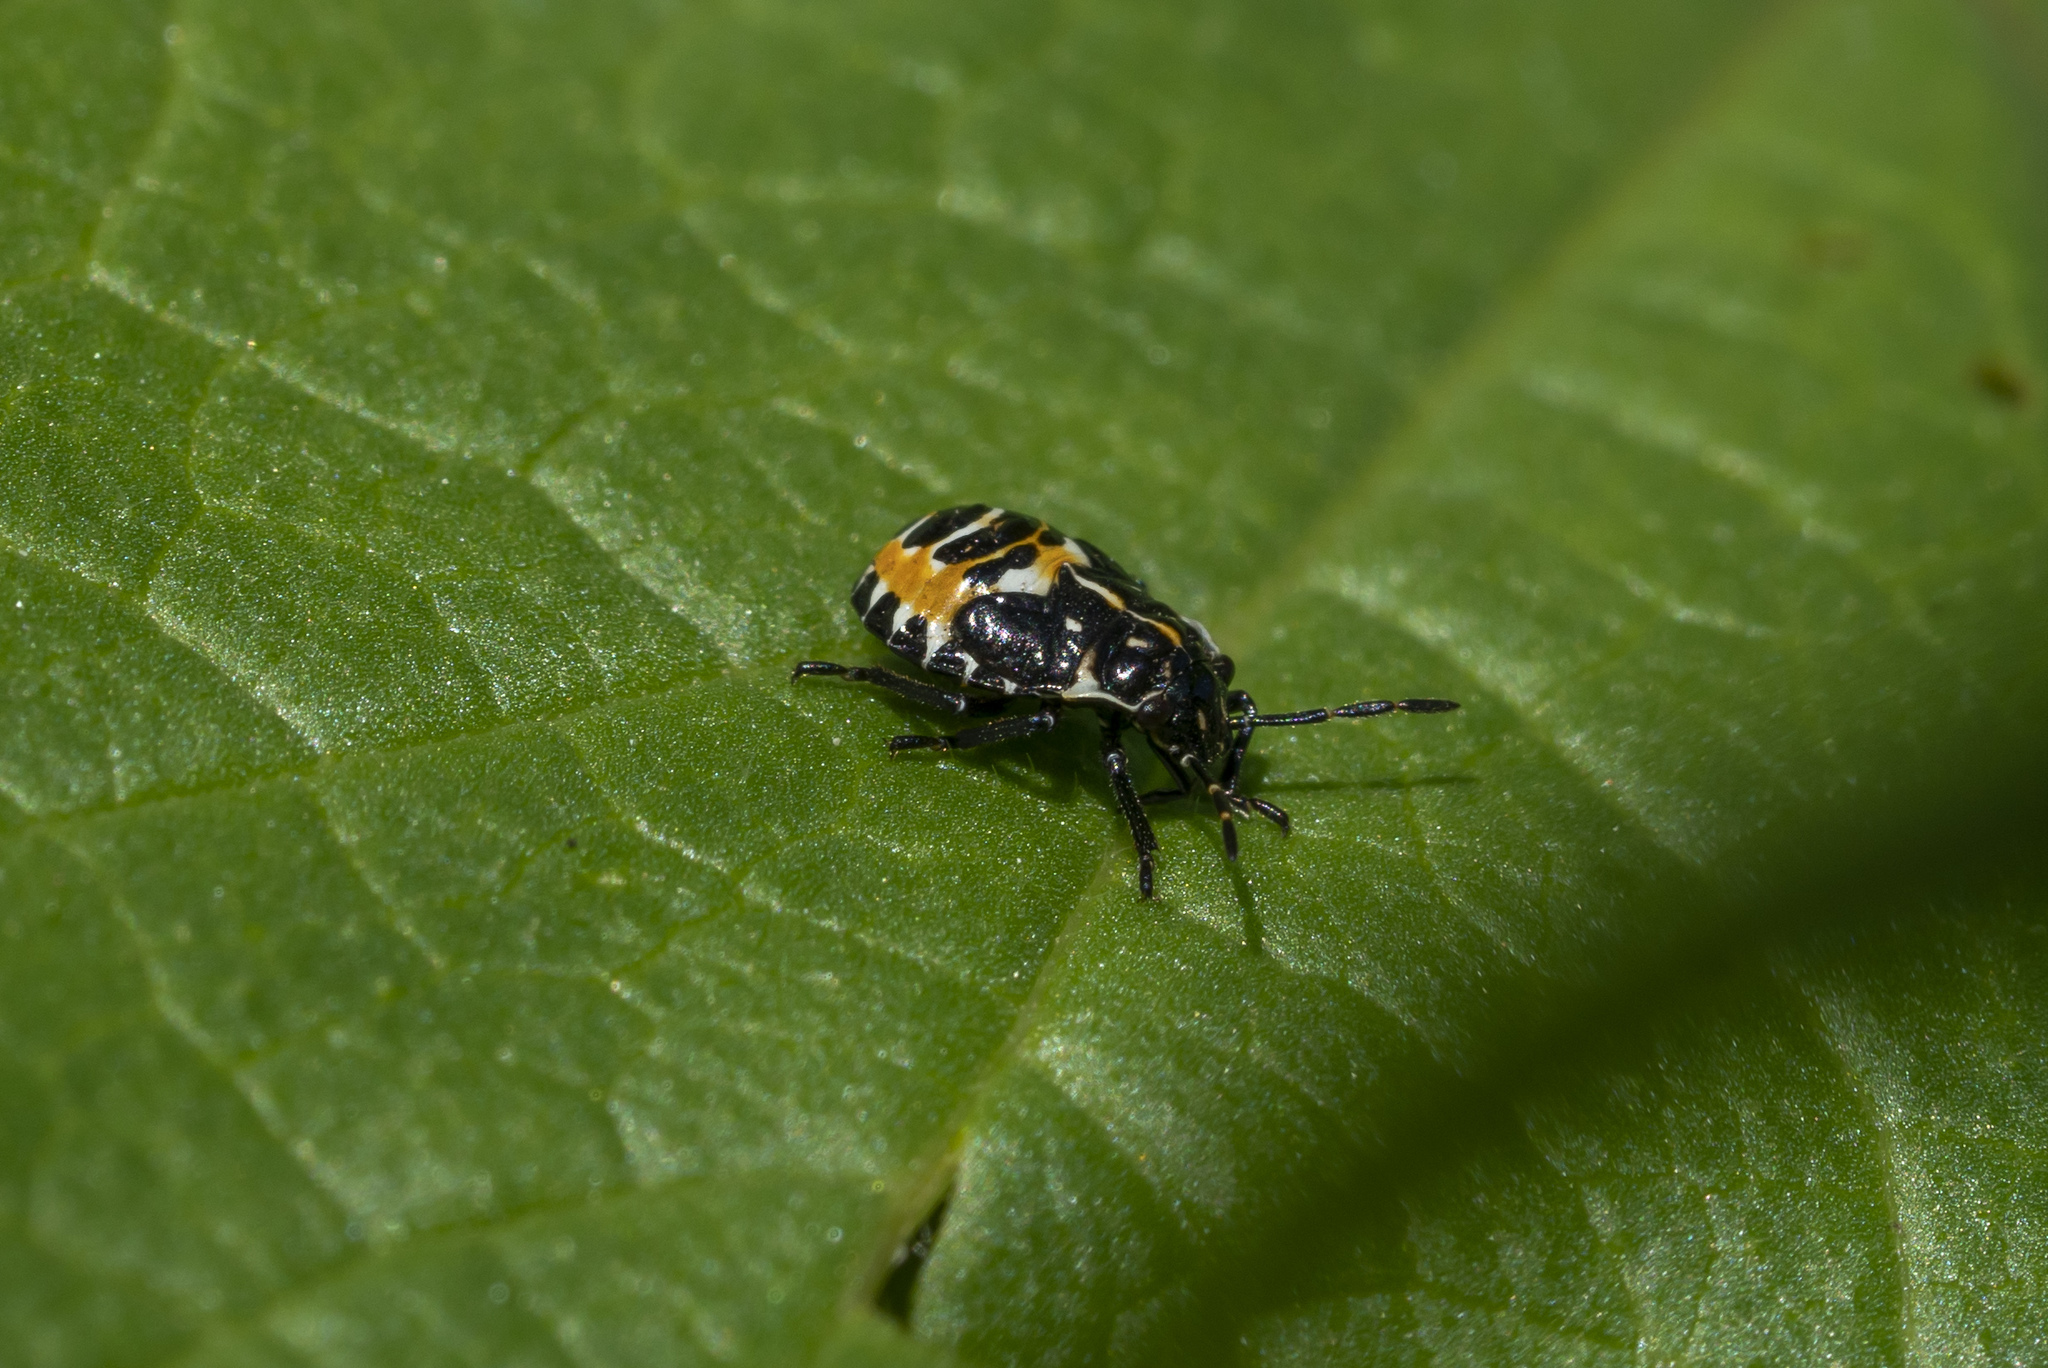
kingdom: Animalia
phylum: Arthropoda
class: Insecta
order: Hemiptera
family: Pentatomidae
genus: Stenozygum
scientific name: Stenozygum coloratum
